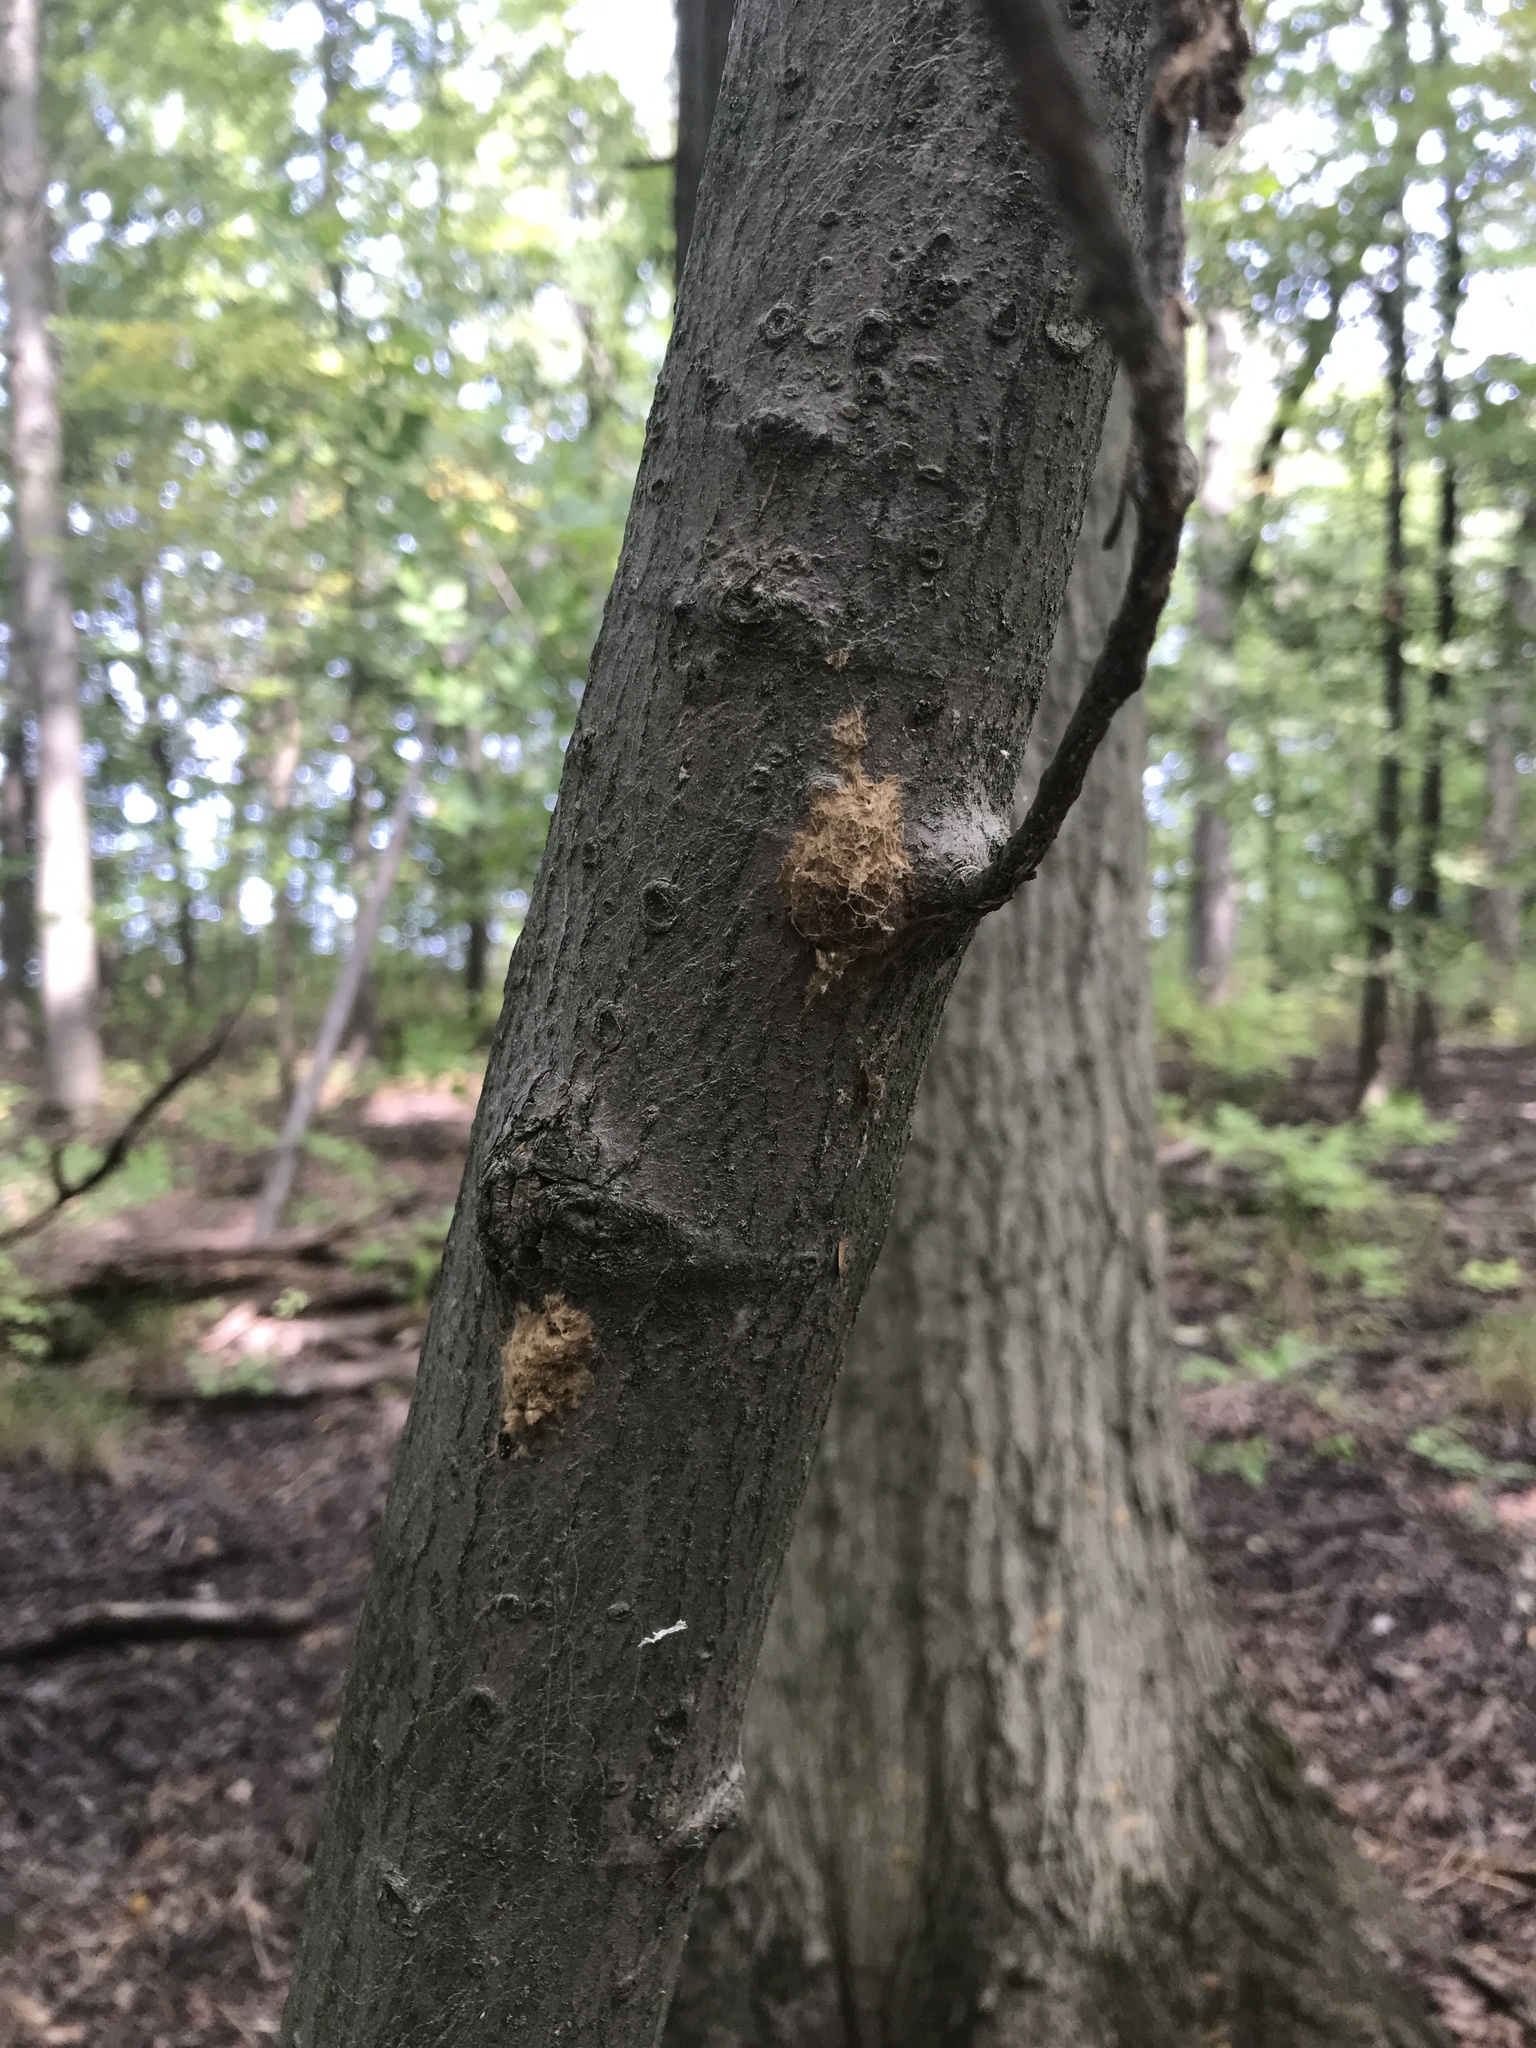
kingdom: Animalia
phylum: Arthropoda
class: Insecta
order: Lepidoptera
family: Erebidae
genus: Lymantria
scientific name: Lymantria dispar
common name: Gypsy moth
